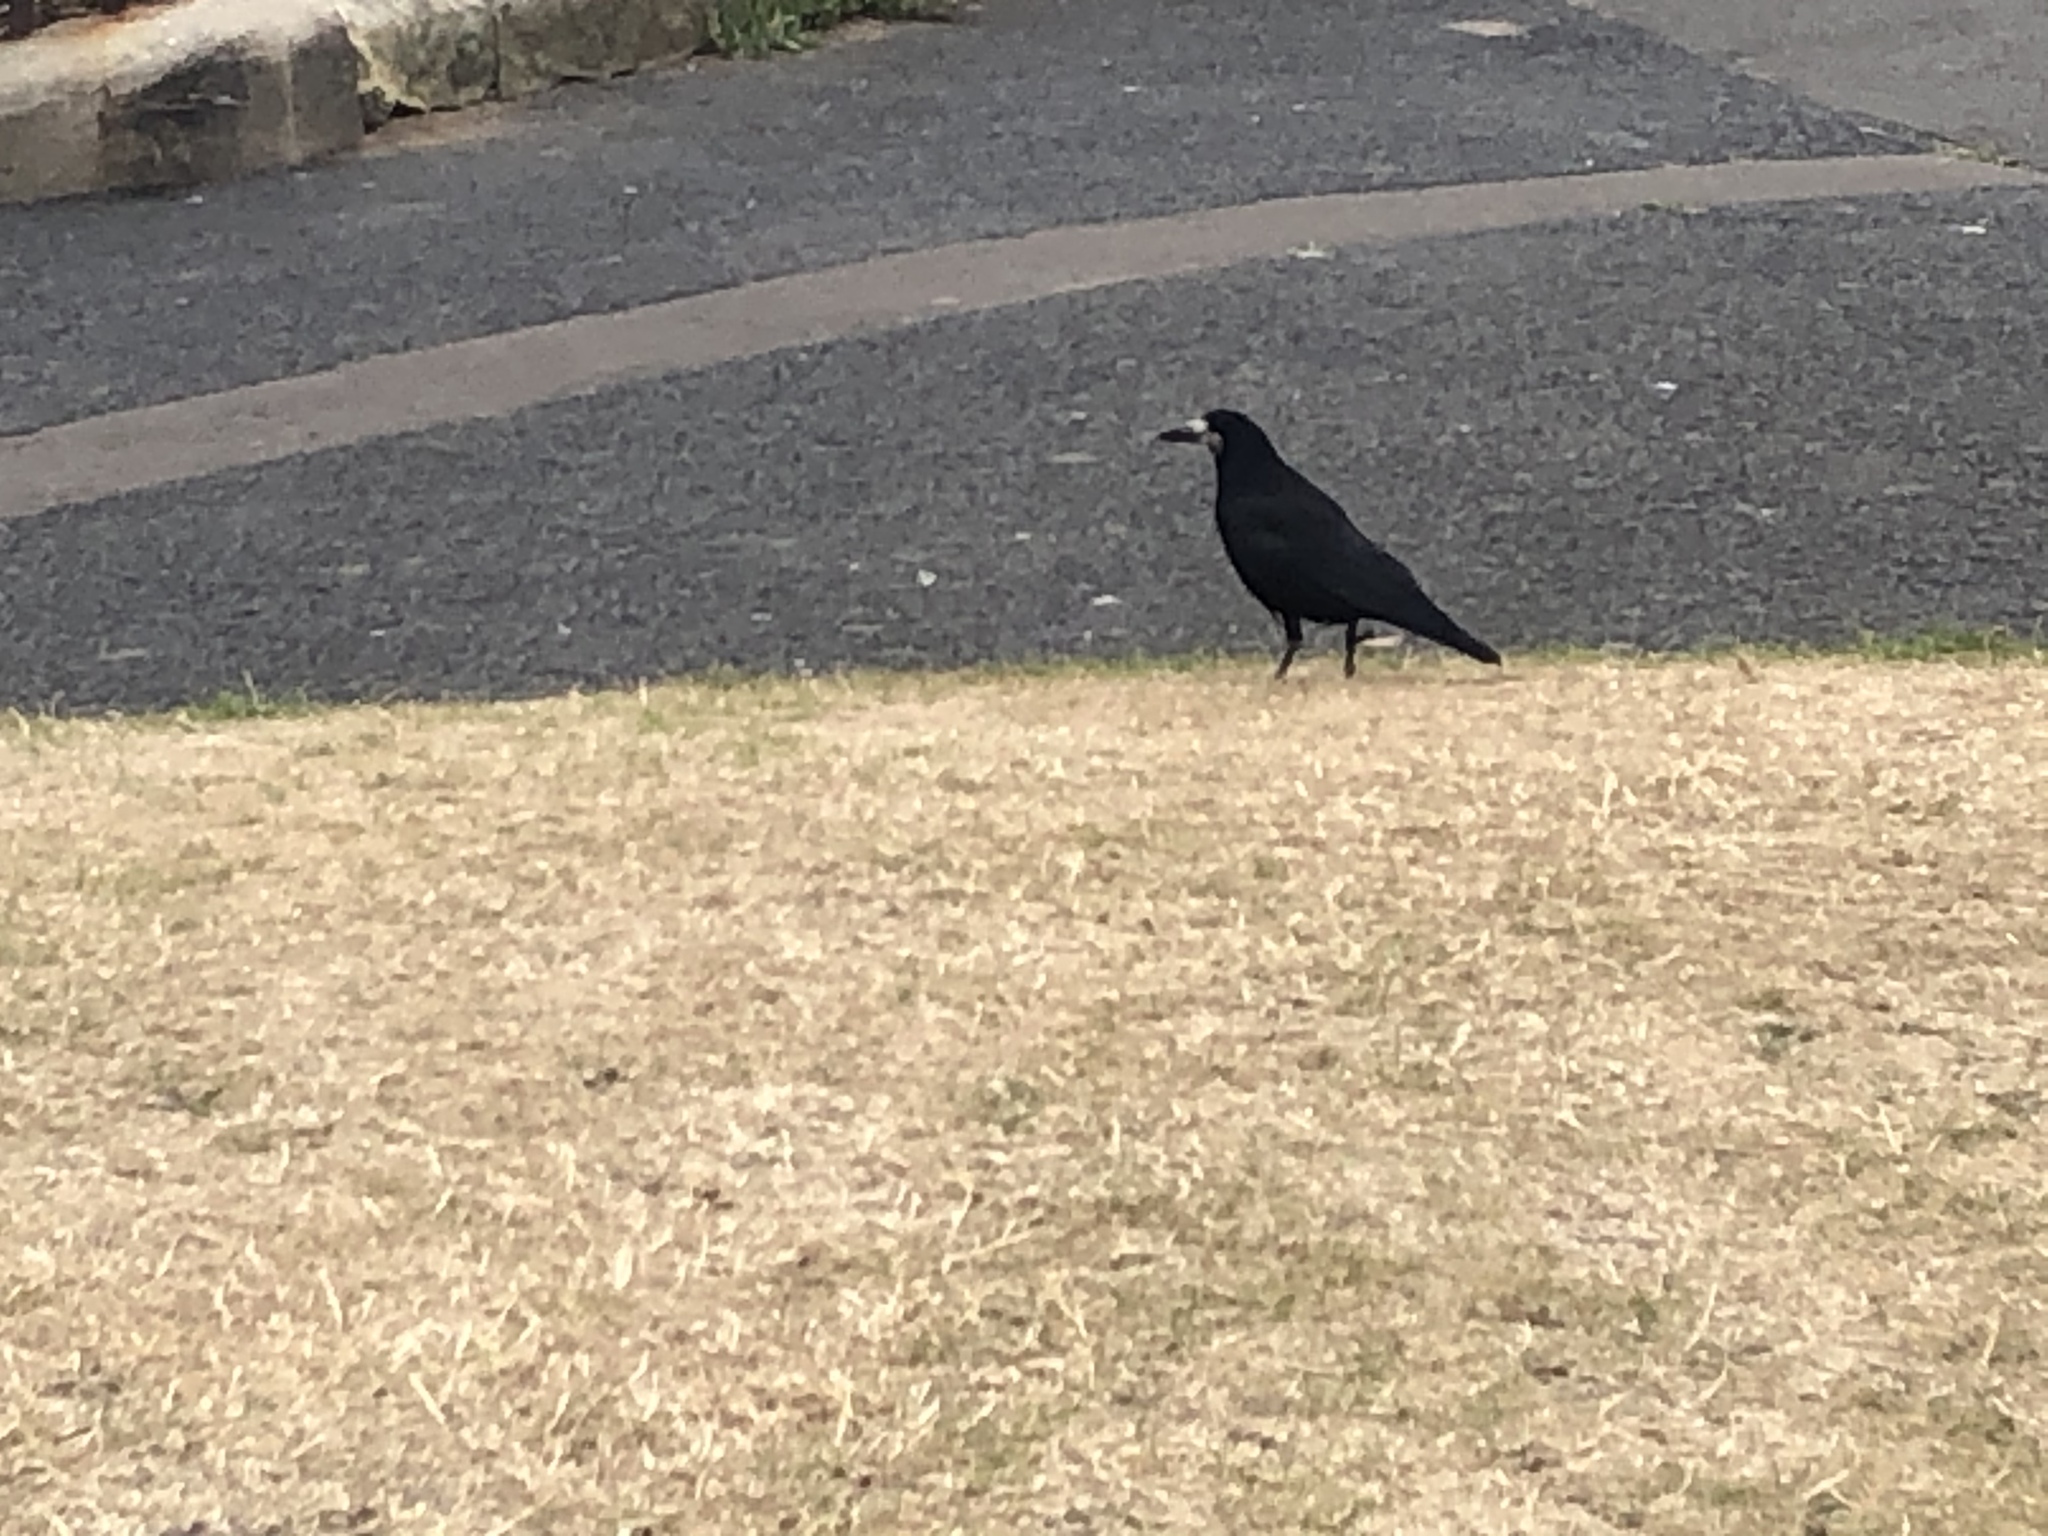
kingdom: Animalia
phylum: Chordata
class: Aves
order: Passeriformes
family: Corvidae
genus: Corvus
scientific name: Corvus frugilegus
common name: Rook
